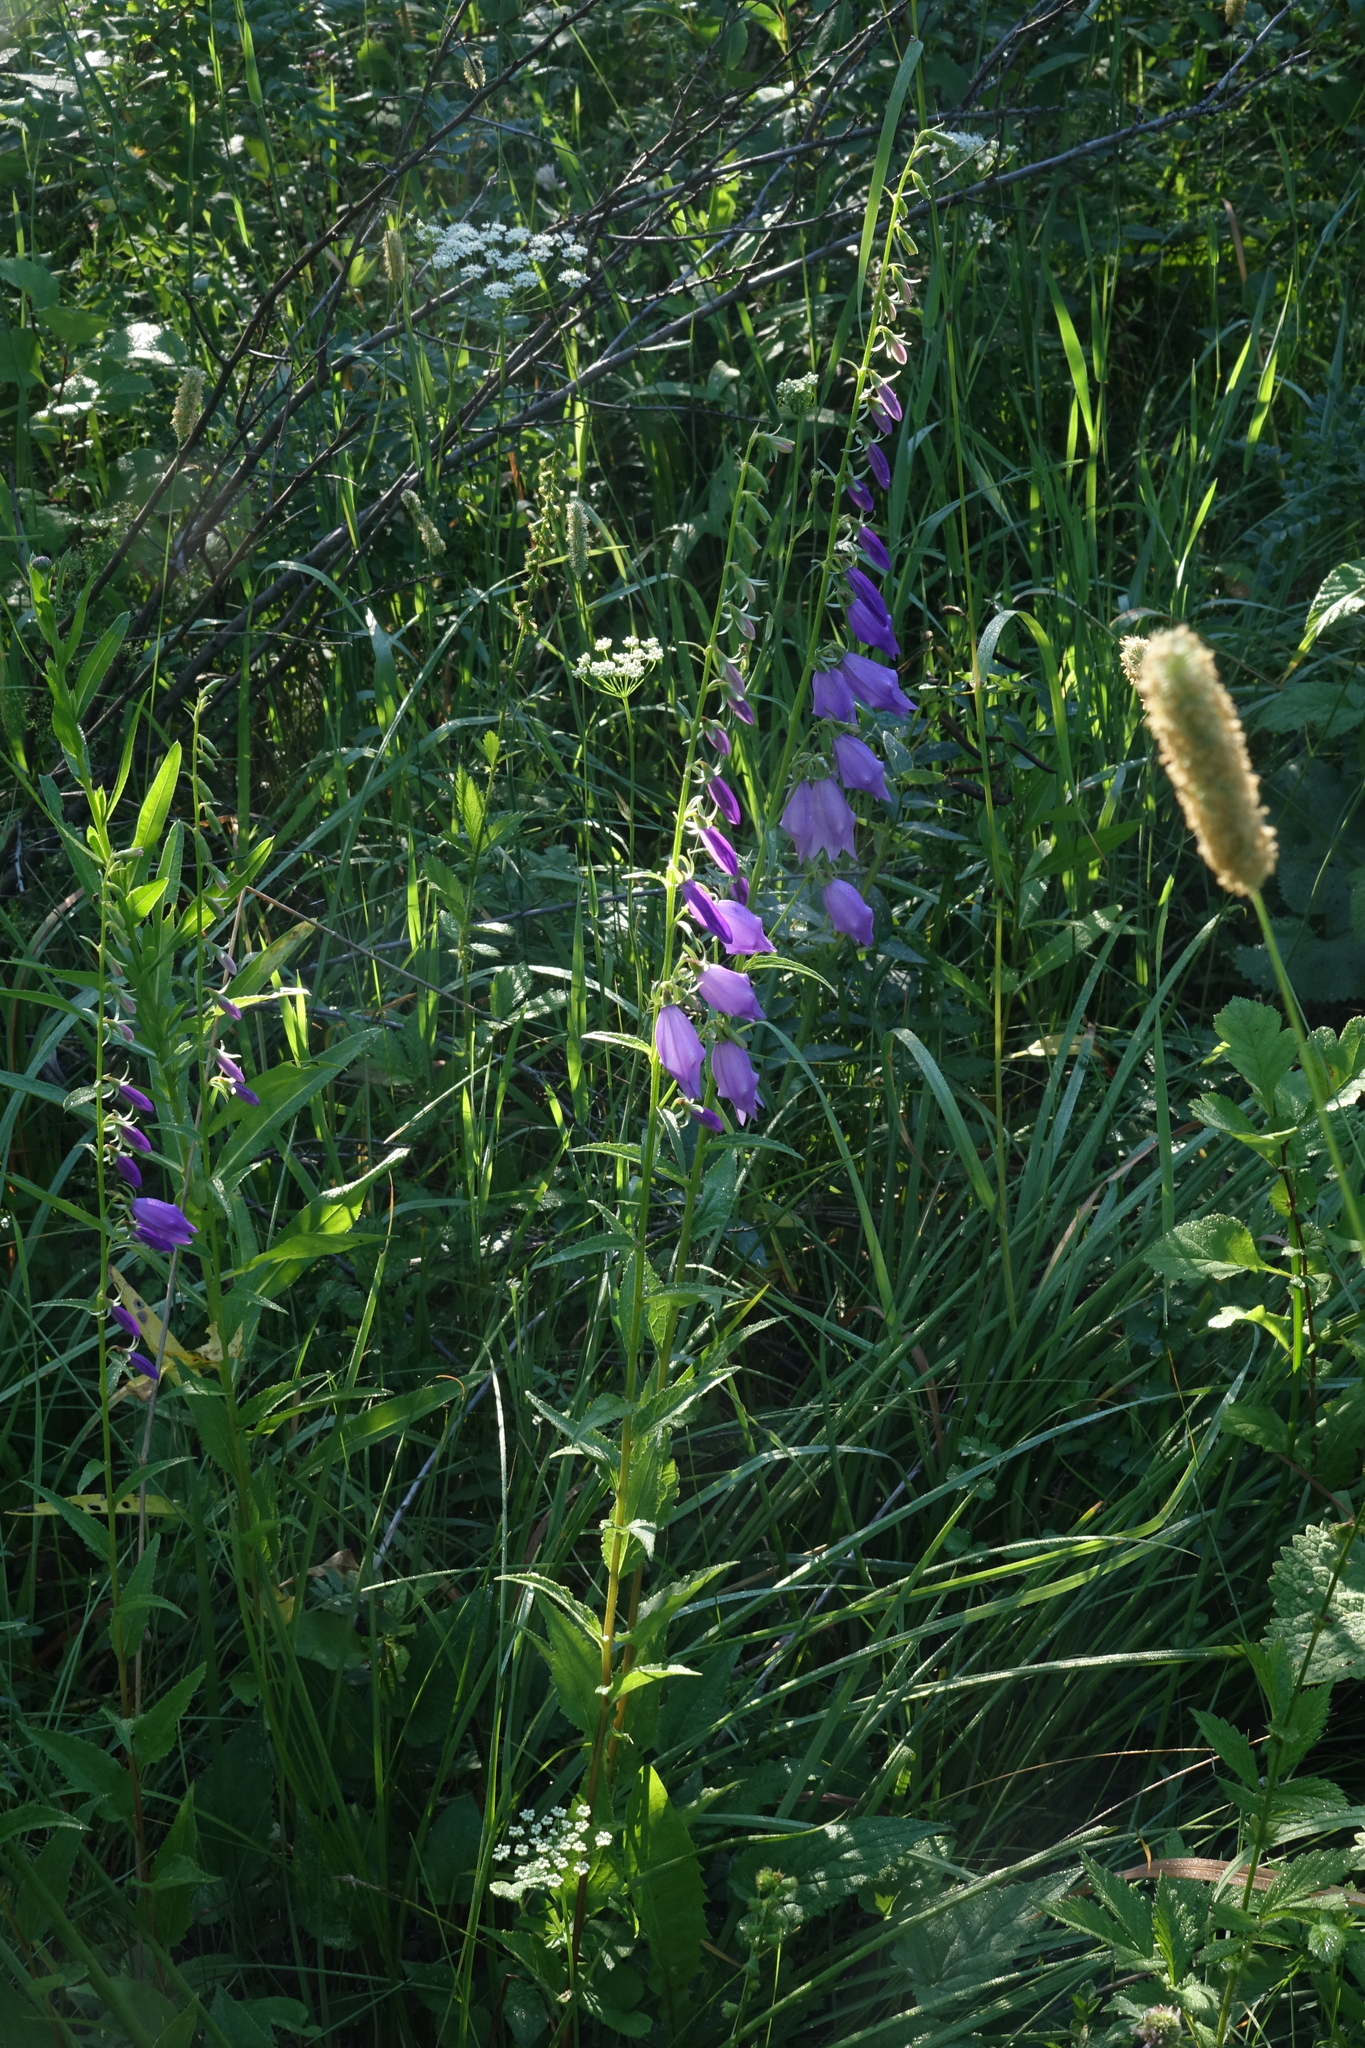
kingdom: Plantae
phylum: Tracheophyta
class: Magnoliopsida
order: Asterales
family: Campanulaceae
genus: Campanula
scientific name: Campanula rapunculoides
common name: Creeping bellflower
